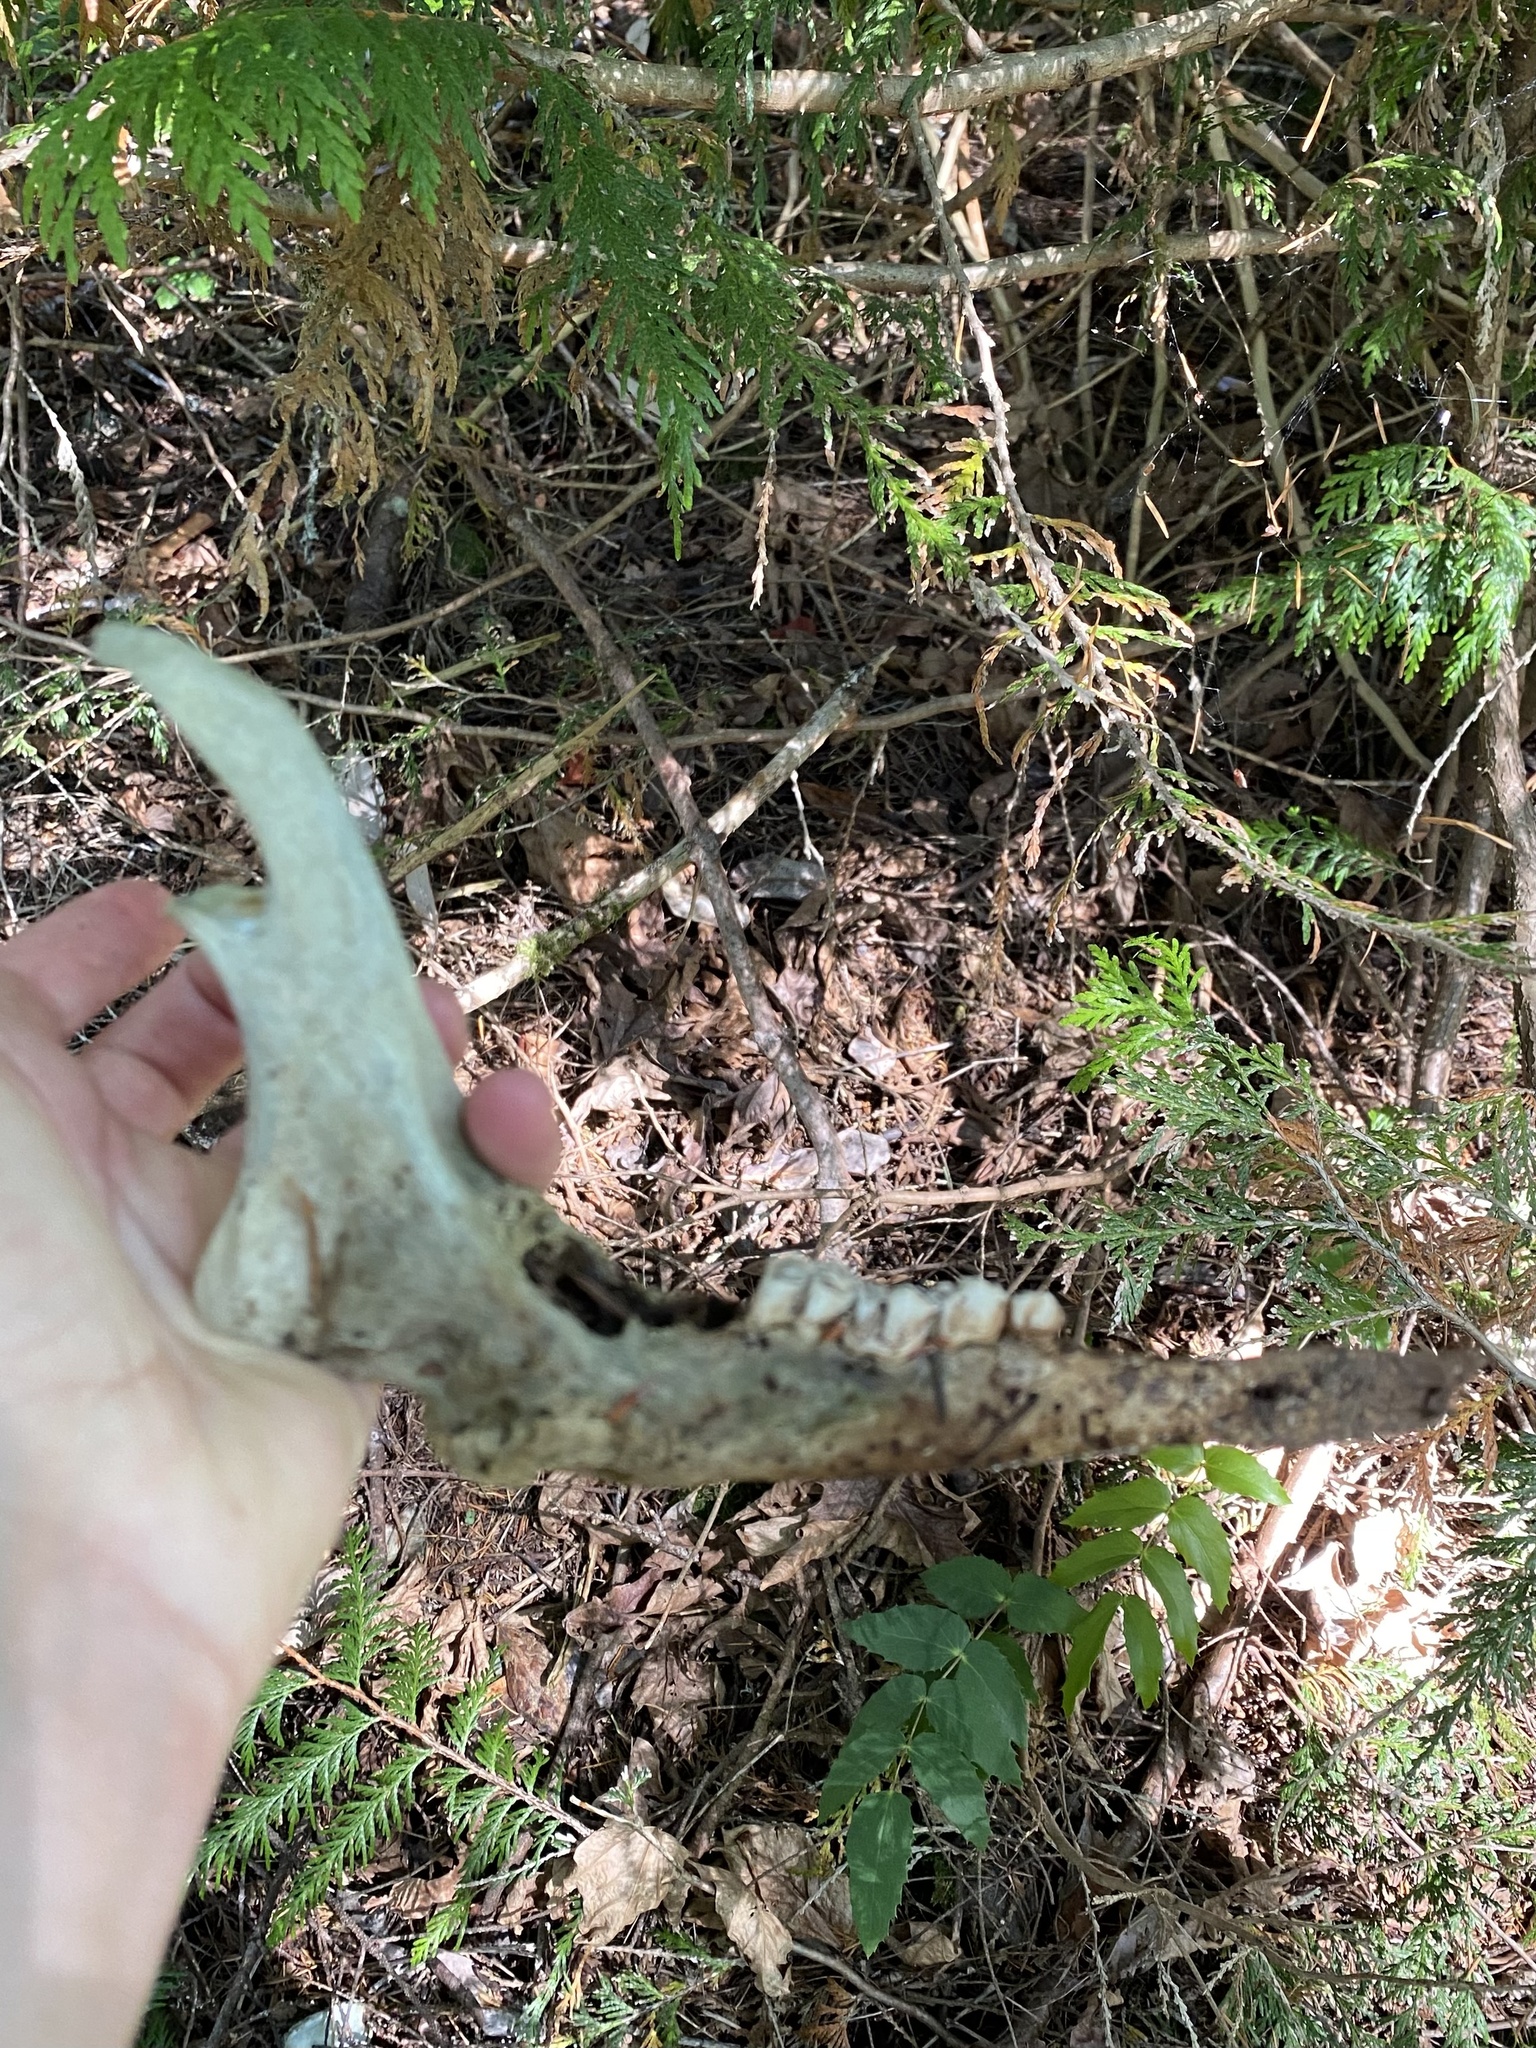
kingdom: Animalia
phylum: Chordata
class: Mammalia
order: Artiodactyla
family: Cervidae
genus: Odocoileus
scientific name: Odocoileus hemionus
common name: Mule deer
